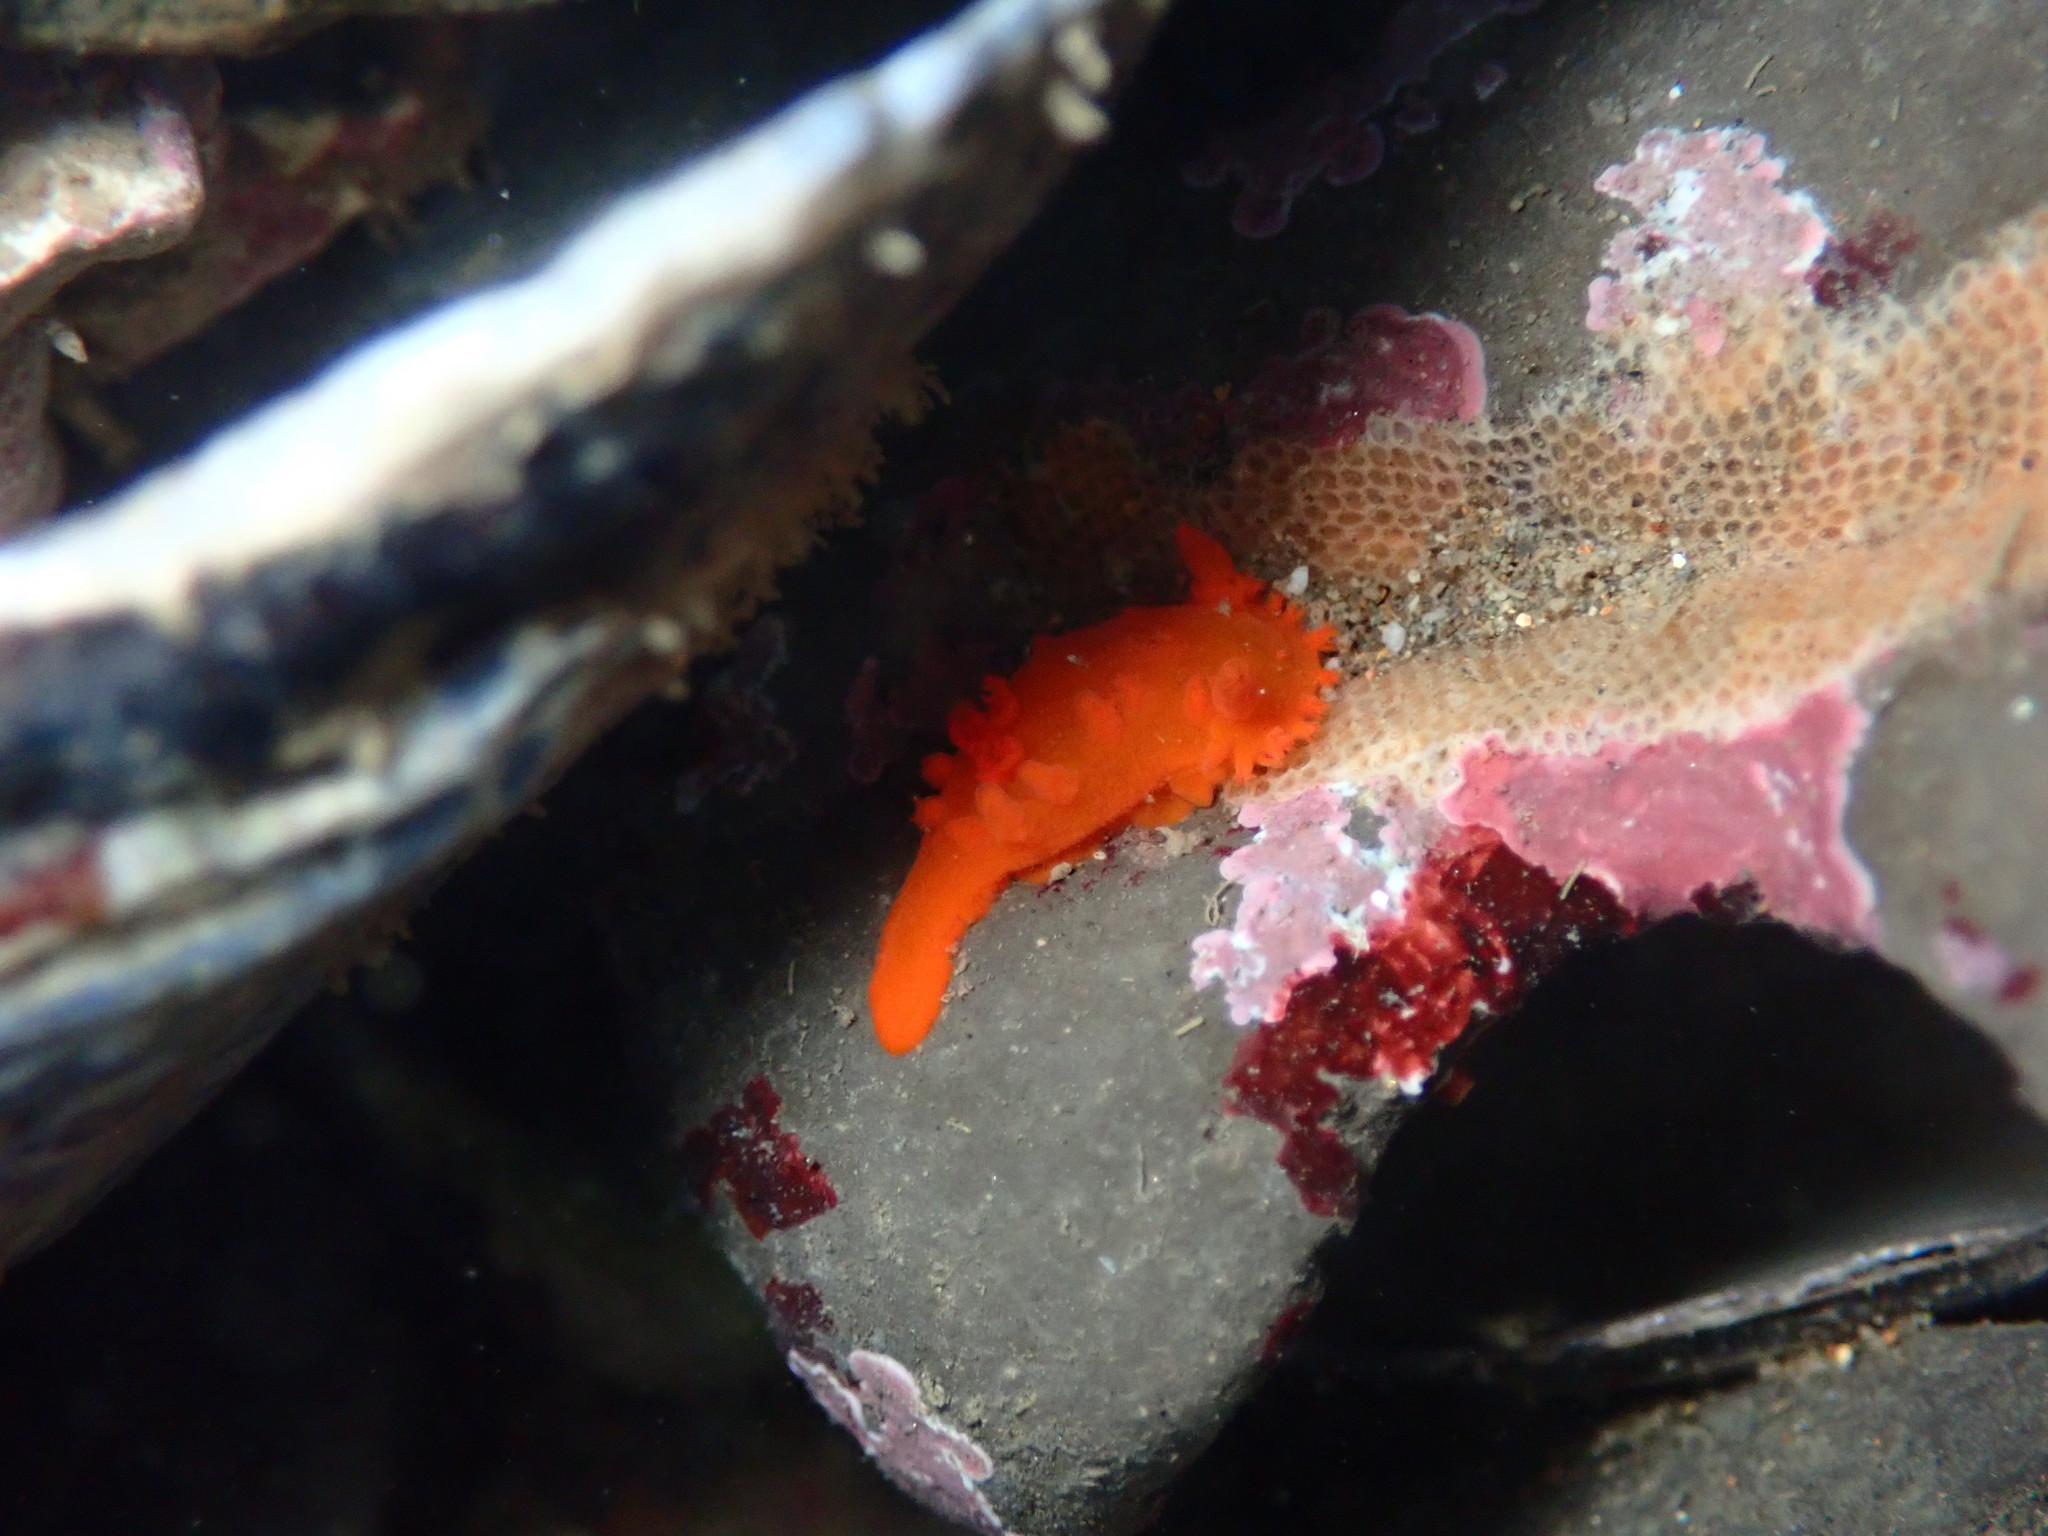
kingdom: Animalia
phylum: Mollusca
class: Gastropoda
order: Nudibranchia
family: Polyceridae
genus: Triopha
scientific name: Triopha maculata
